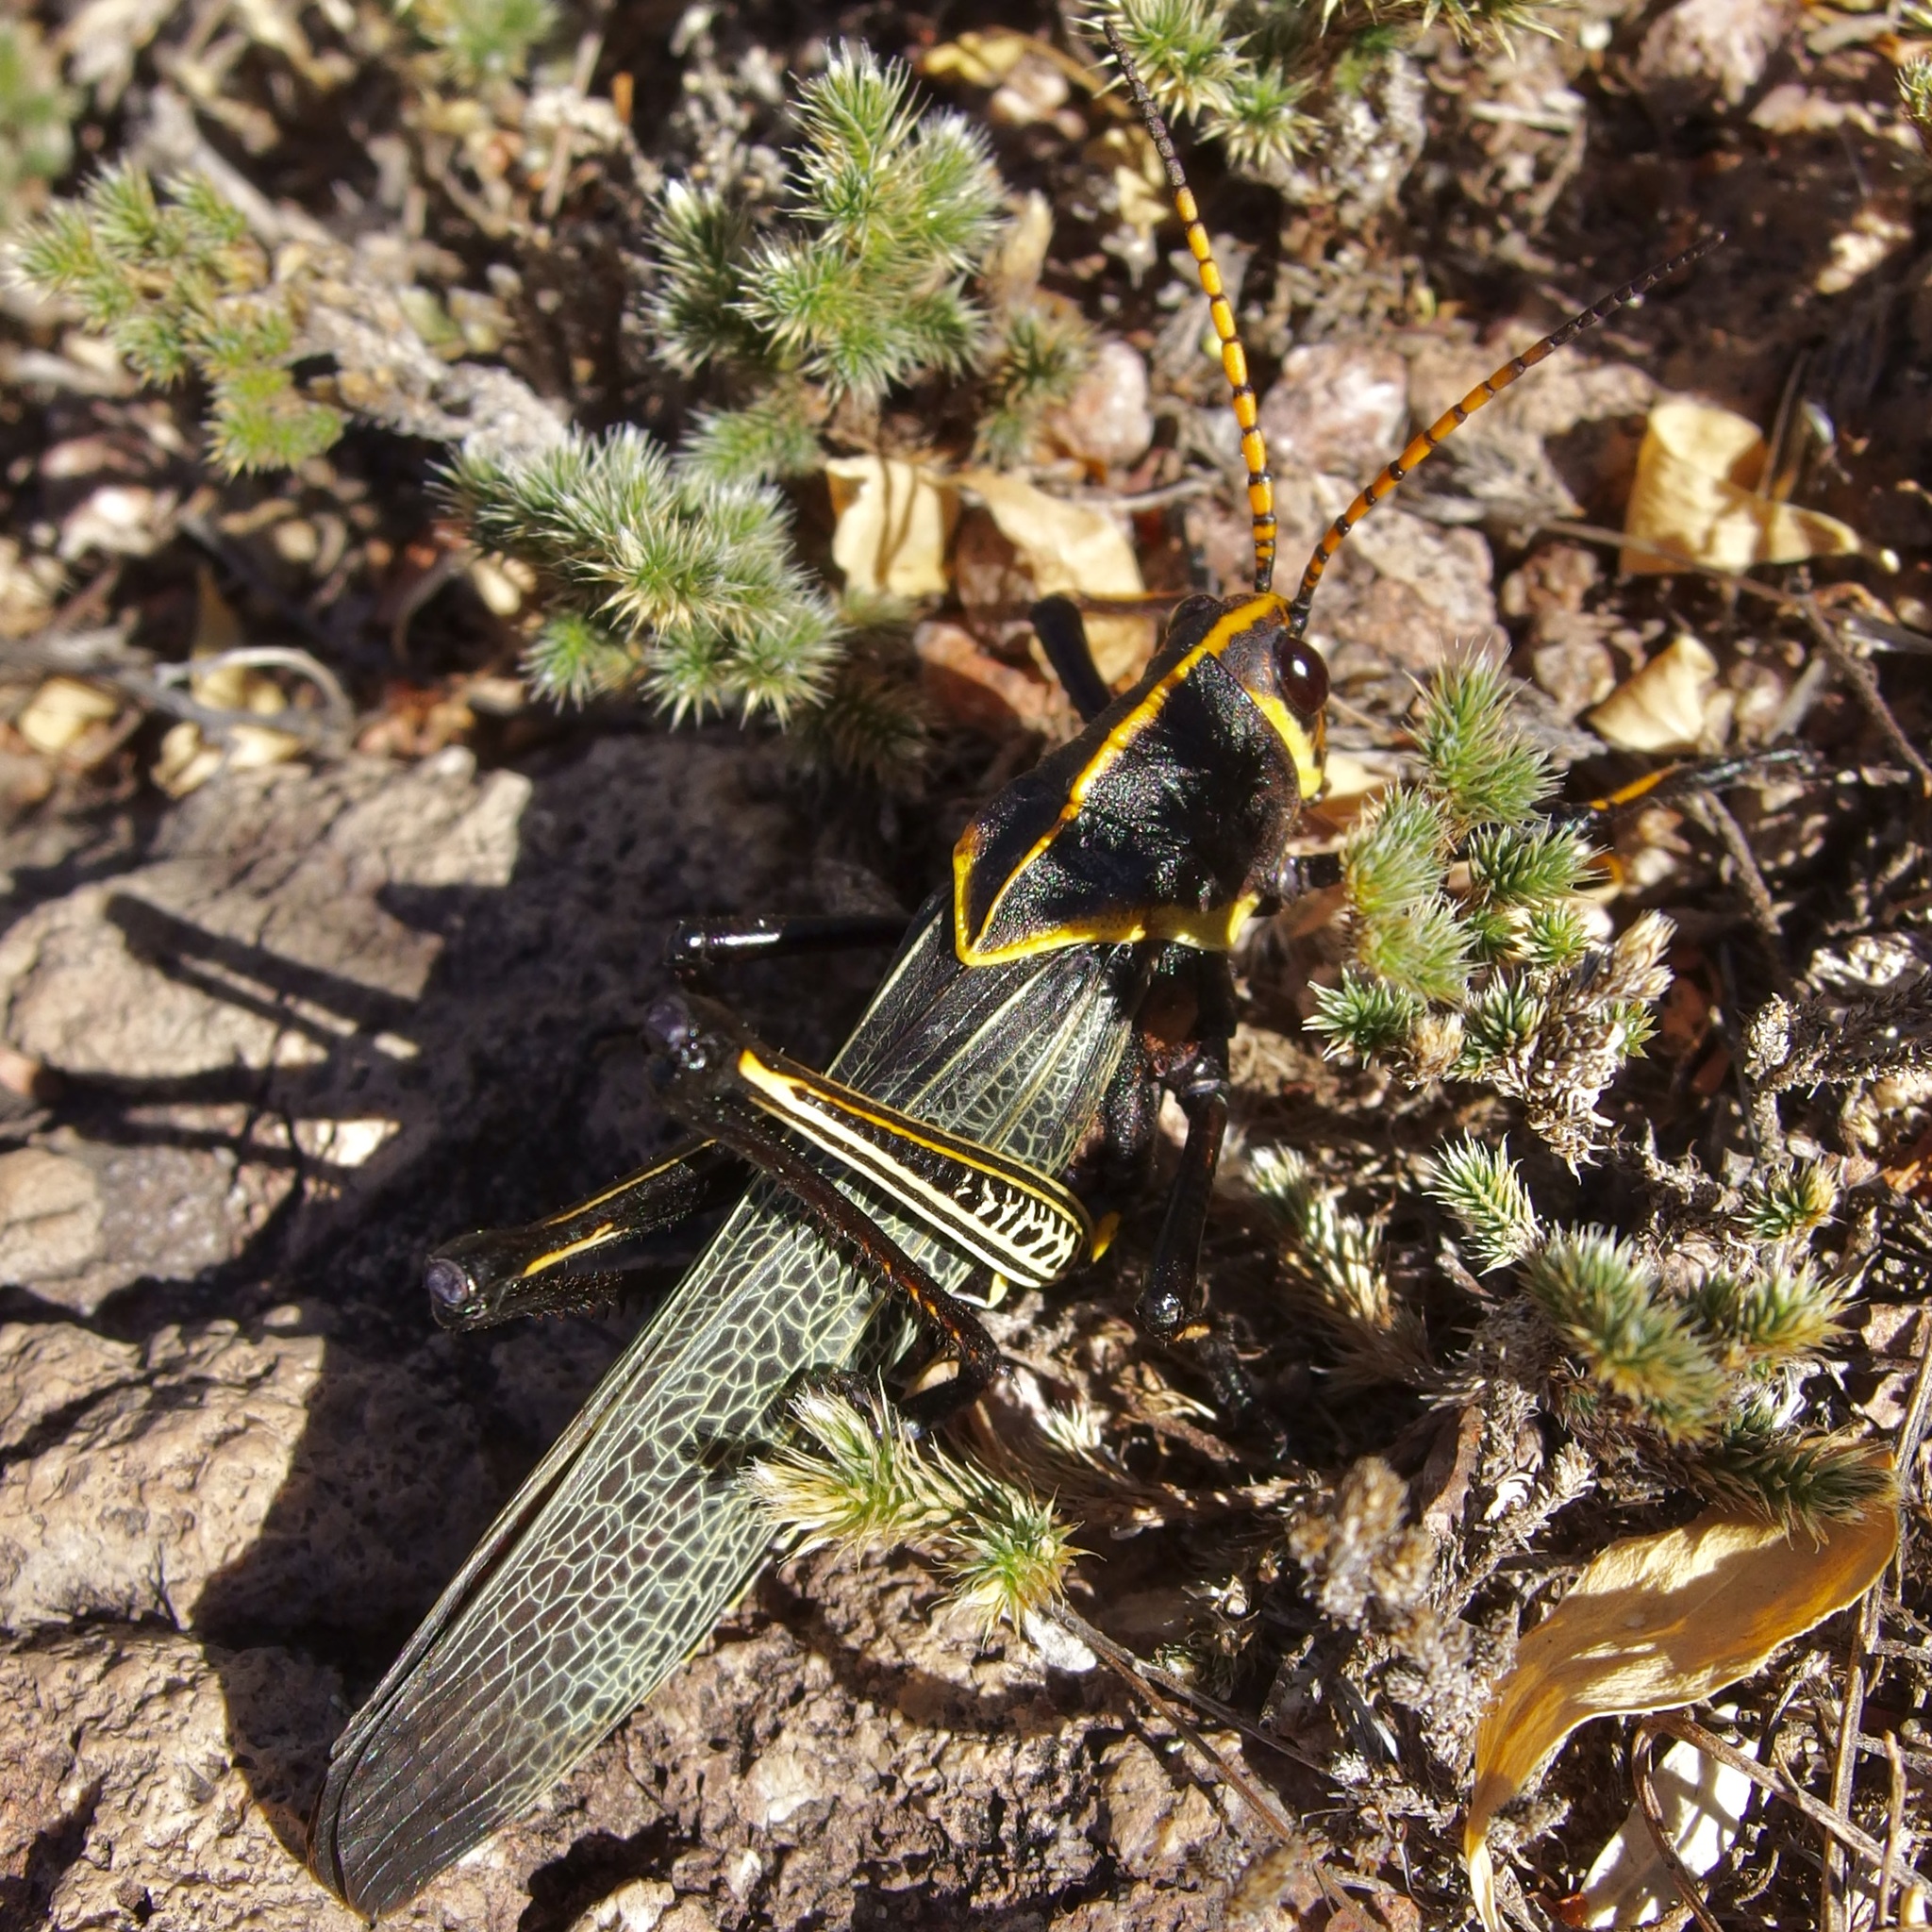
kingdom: Animalia
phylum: Arthropoda
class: Insecta
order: Orthoptera
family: Romaleidae
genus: Romalea
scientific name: Romalea
